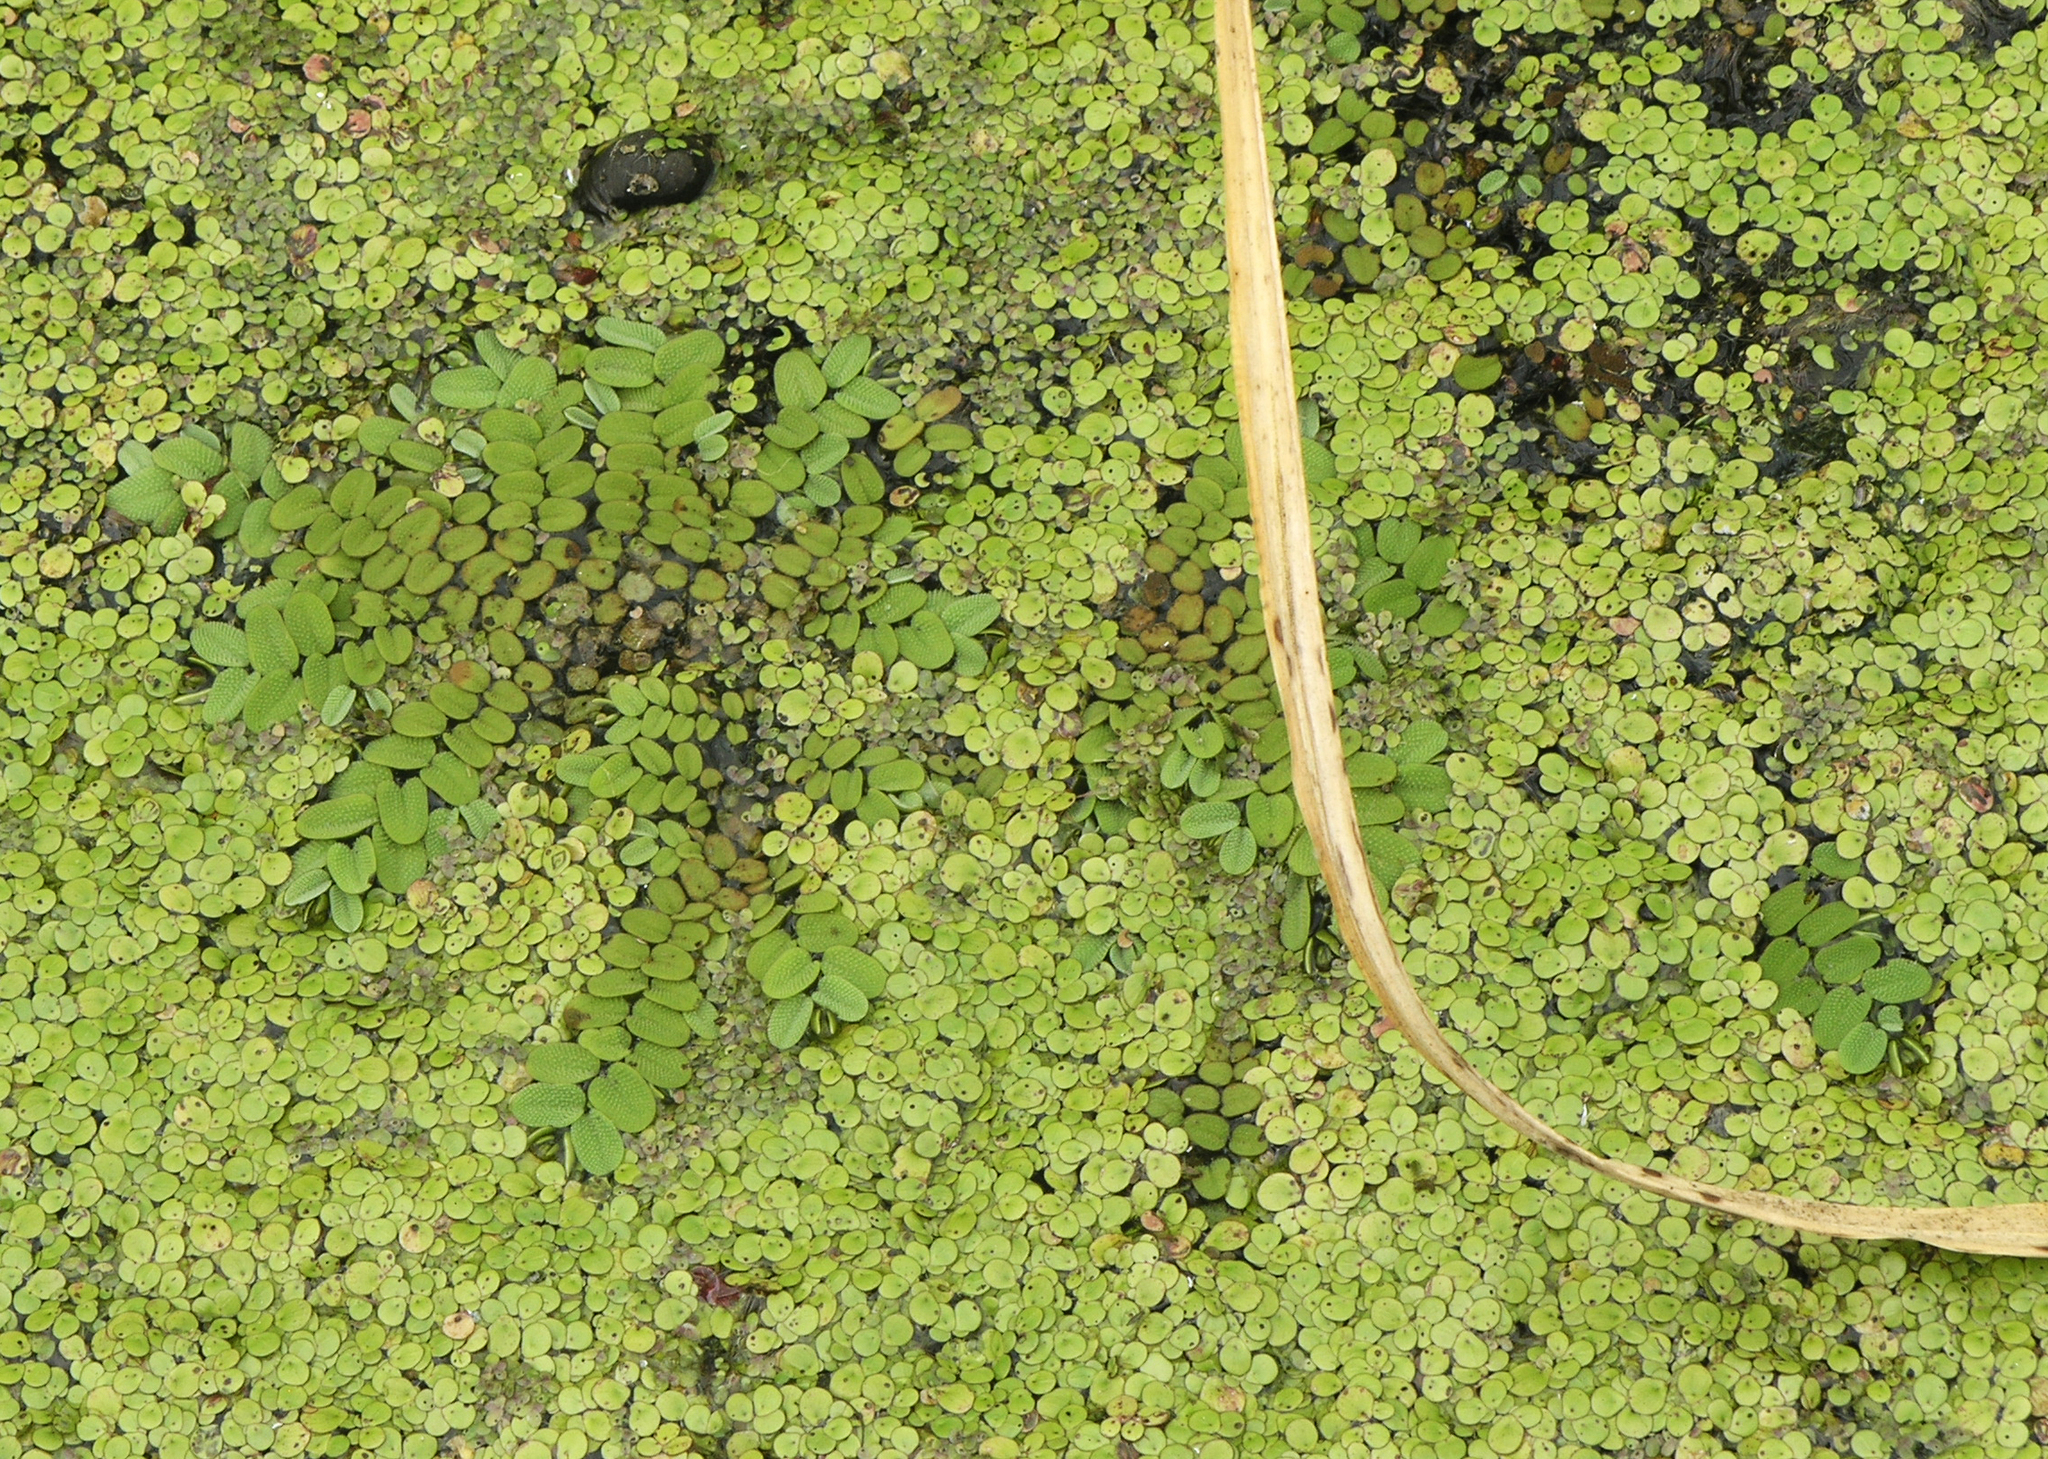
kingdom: Plantae
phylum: Tracheophyta
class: Polypodiopsida
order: Salviniales
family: Salviniaceae
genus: Salvinia
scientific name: Salvinia natans
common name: Floating fern
